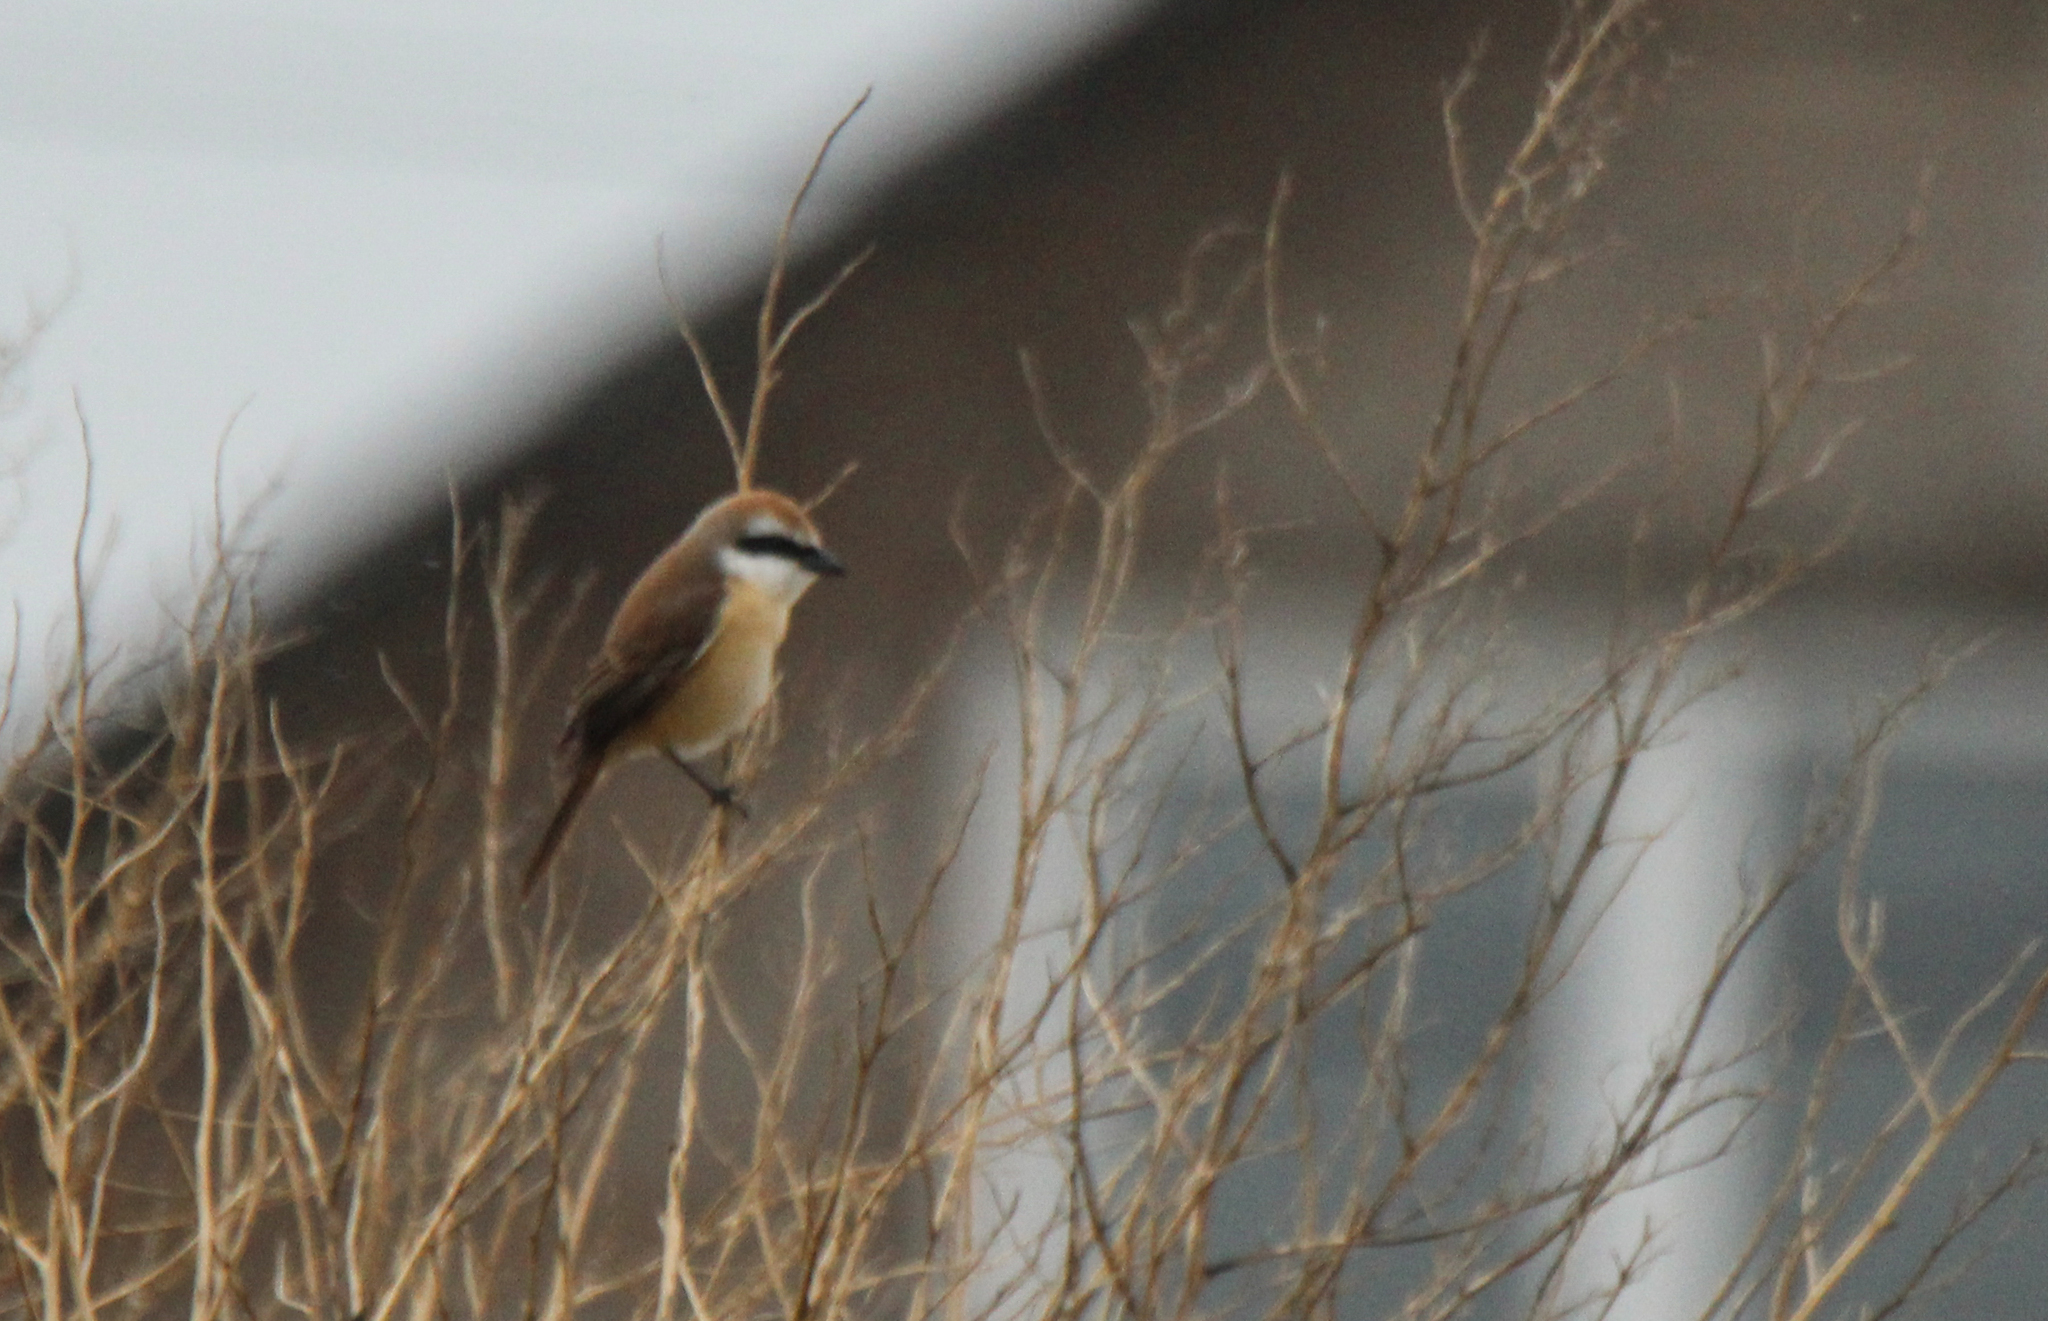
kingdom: Animalia
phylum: Chordata
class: Aves
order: Passeriformes
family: Laniidae
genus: Lanius
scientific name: Lanius cristatus
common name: Brown shrike
